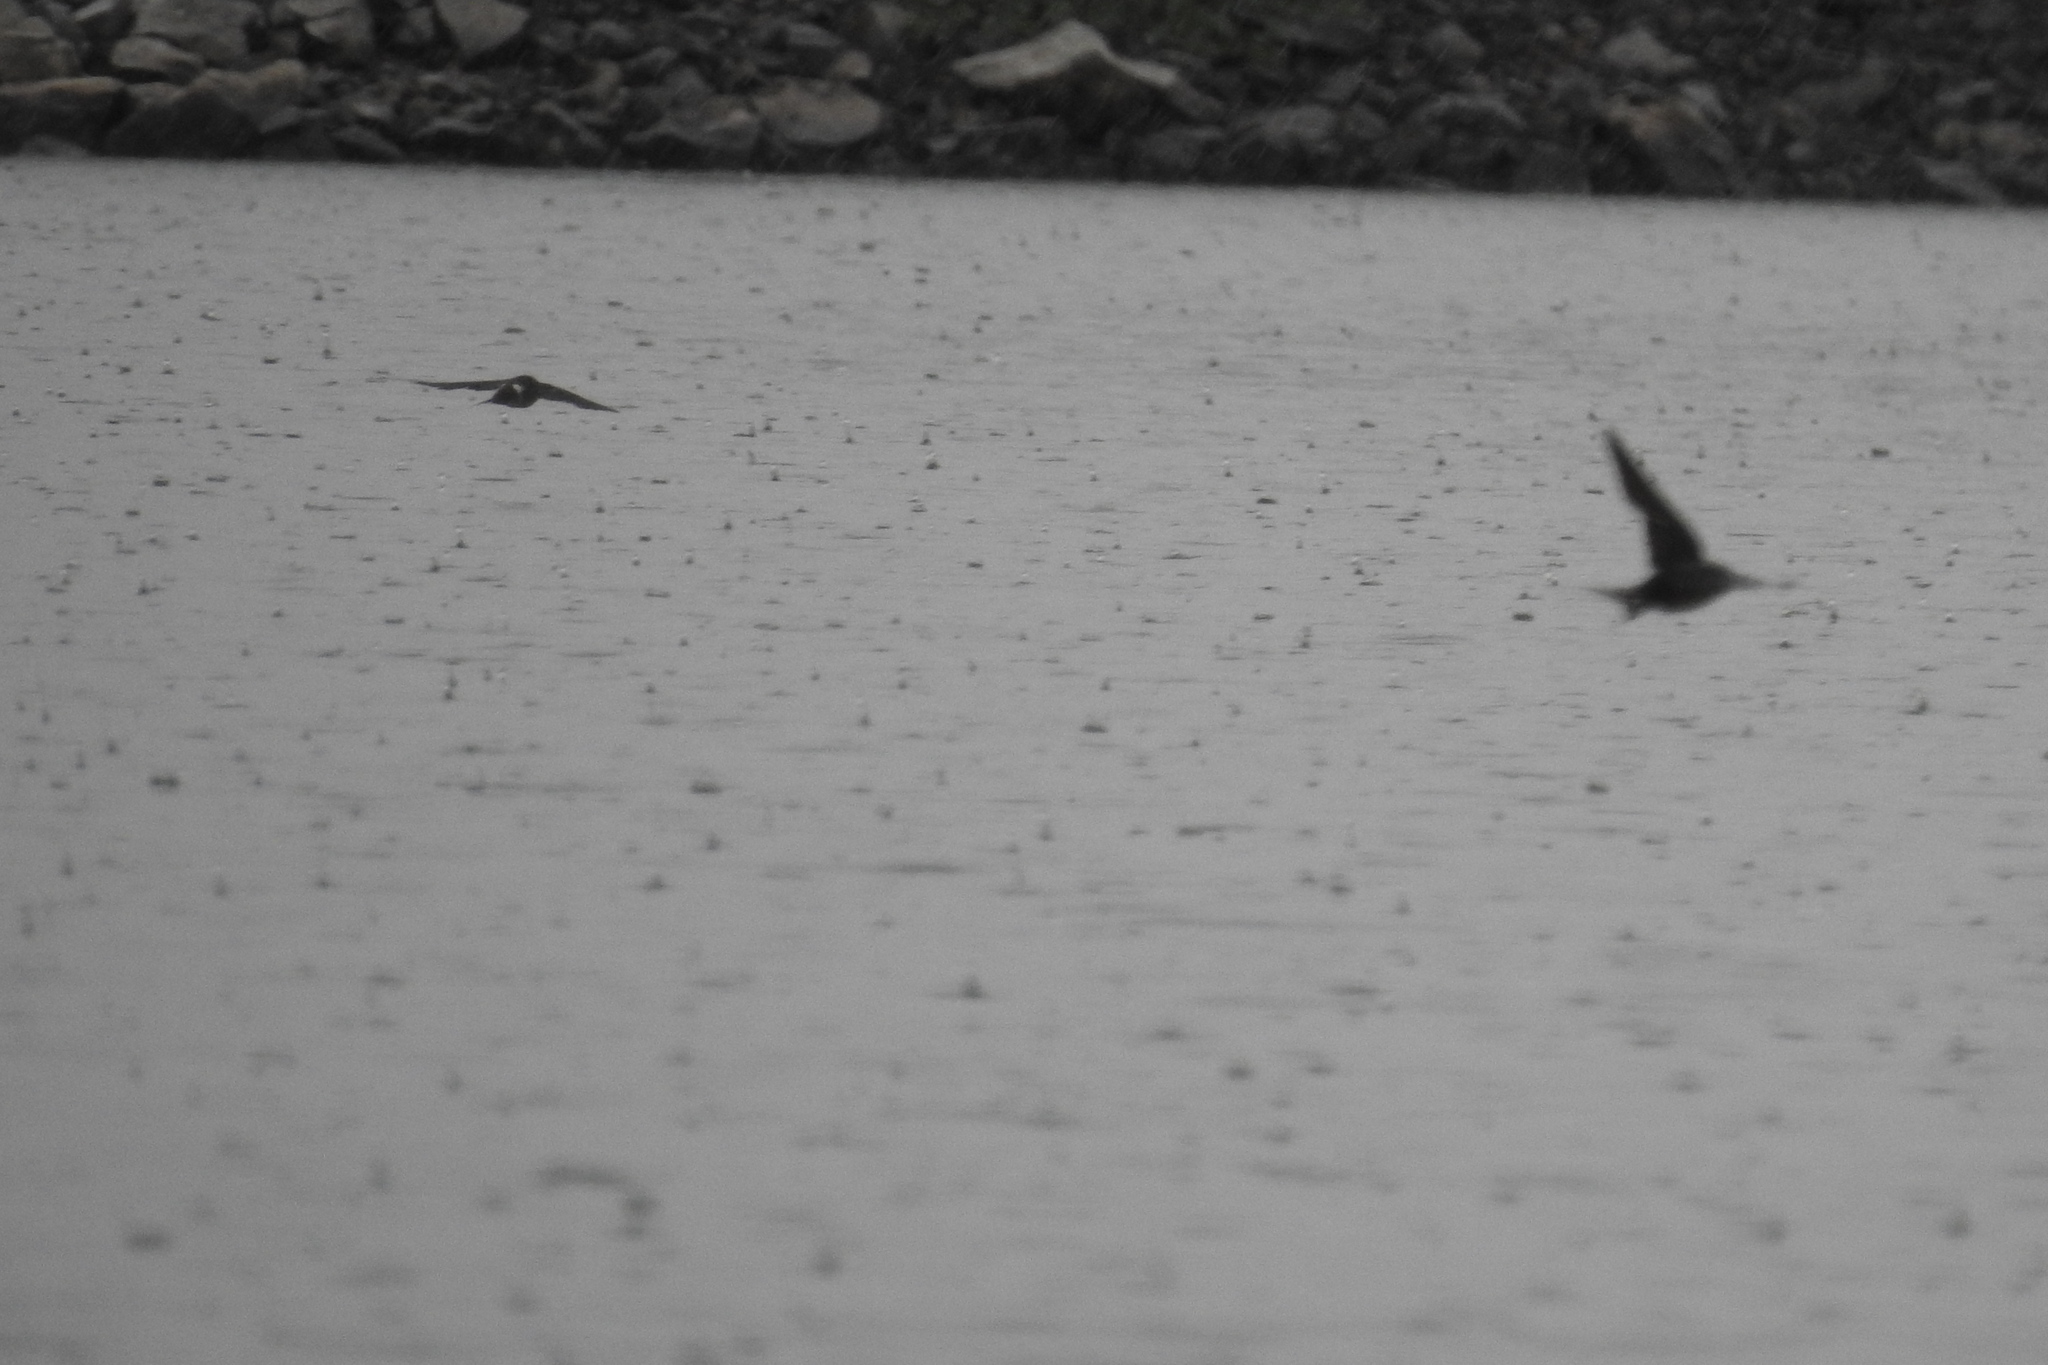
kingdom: Animalia
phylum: Chordata
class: Aves
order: Passeriformes
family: Hirundinidae
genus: Hirundo
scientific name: Hirundo rustica
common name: Barn swallow
